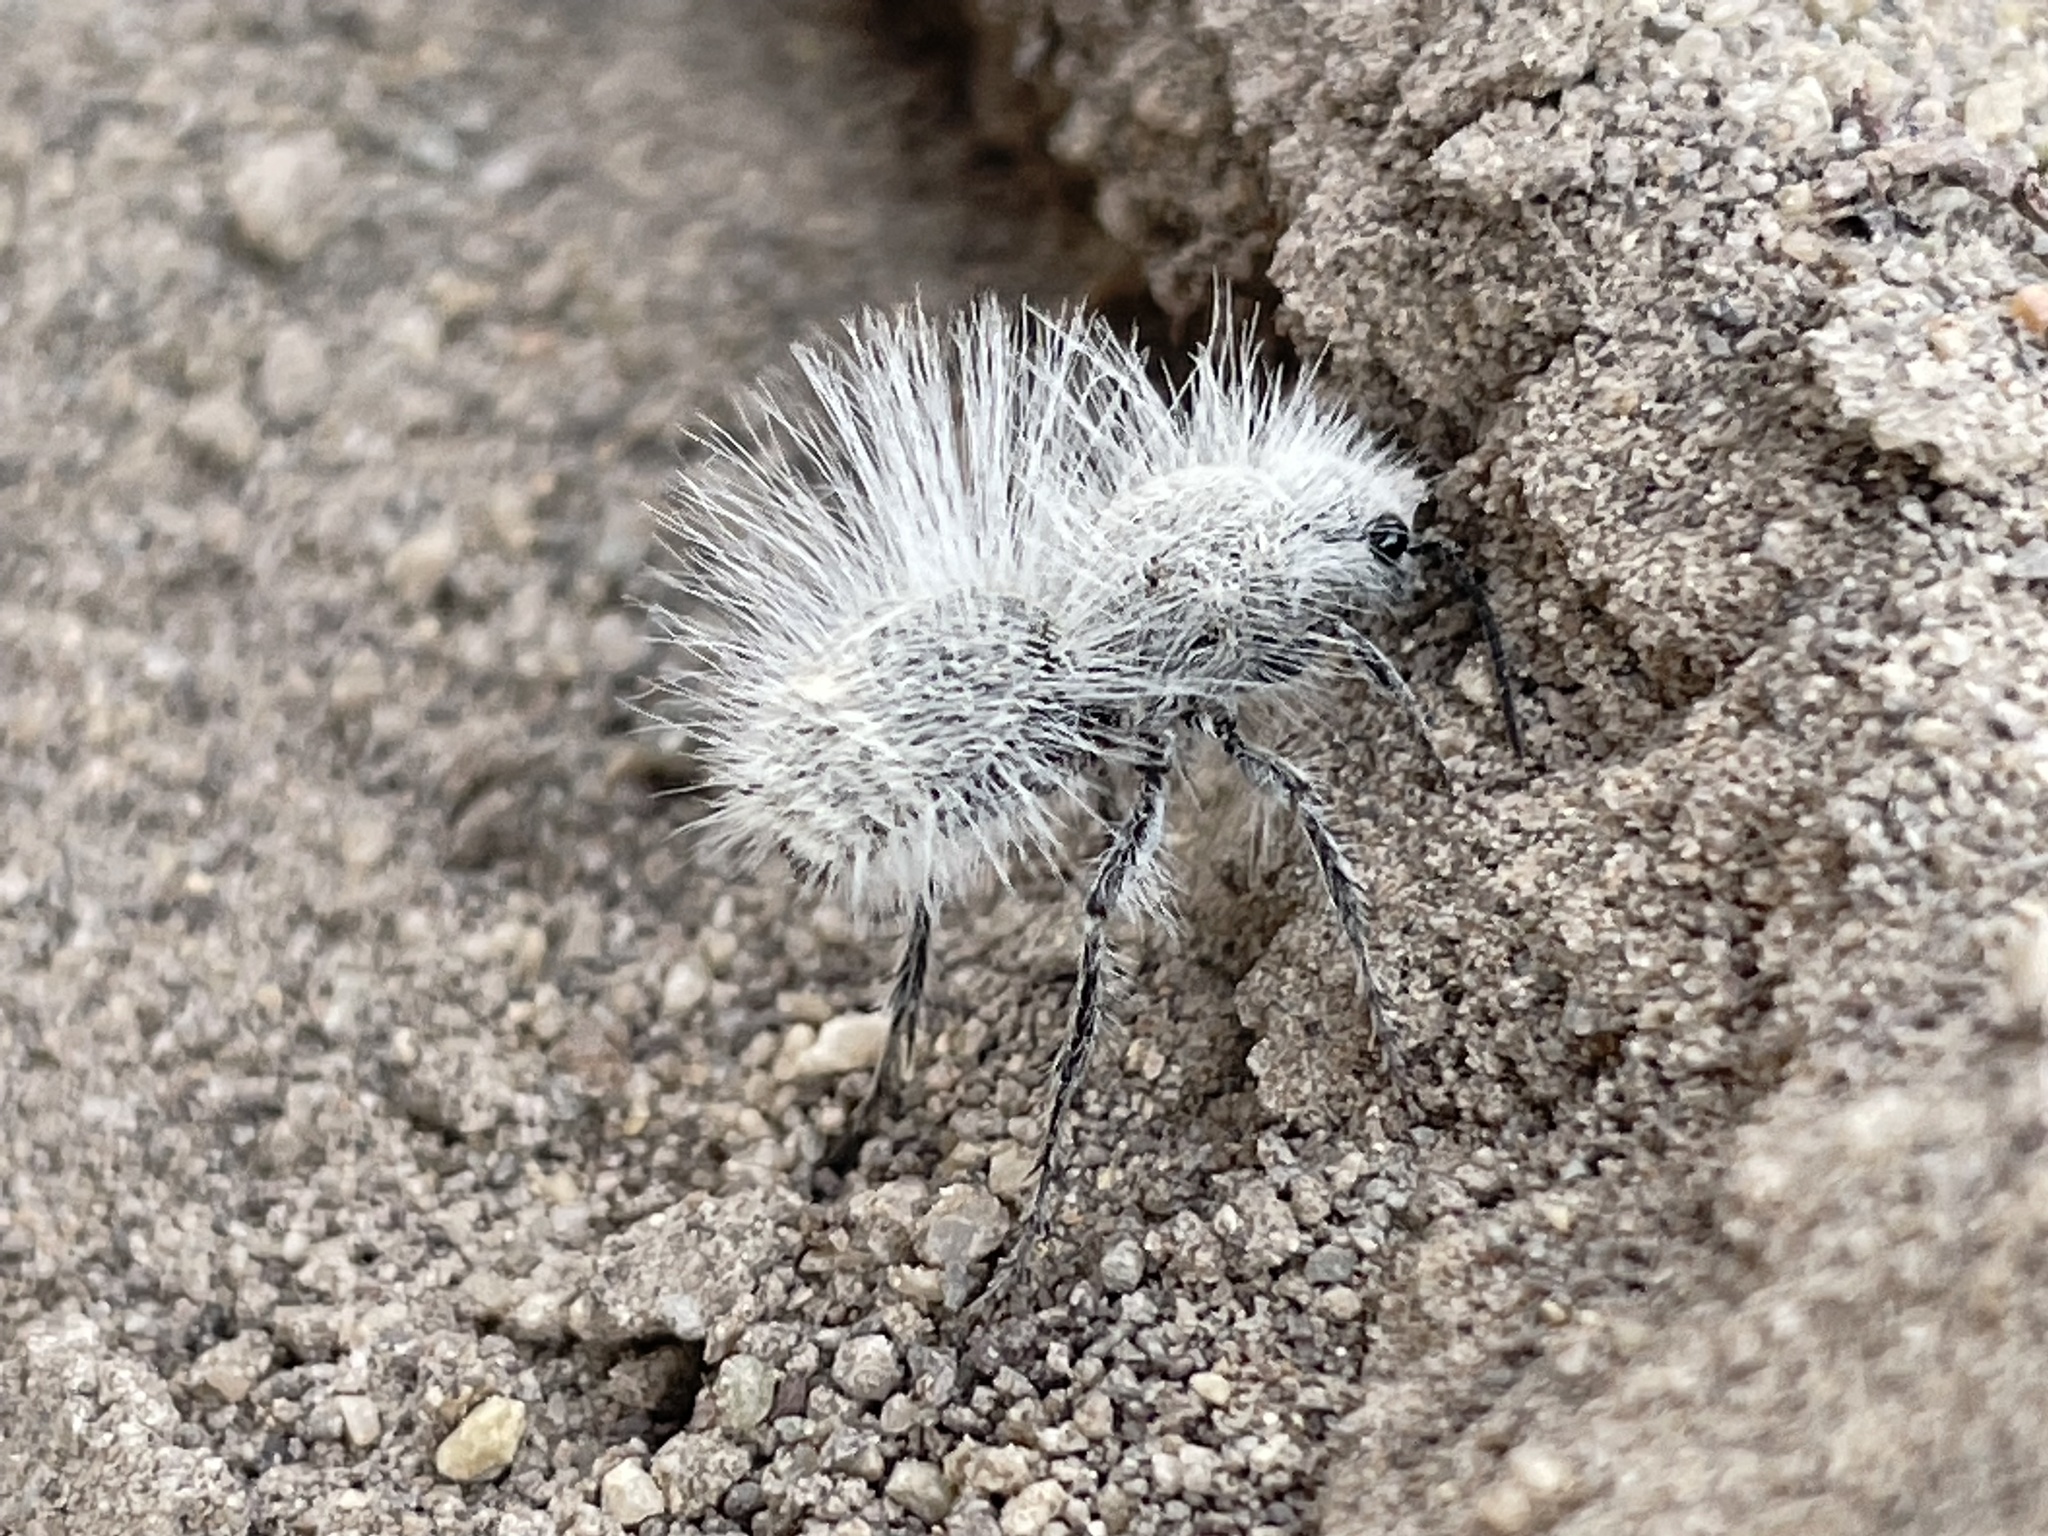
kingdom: Animalia
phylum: Arthropoda
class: Insecta
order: Hymenoptera
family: Mutillidae
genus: Dasymutilla
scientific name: Dasymutilla pseudopappus
